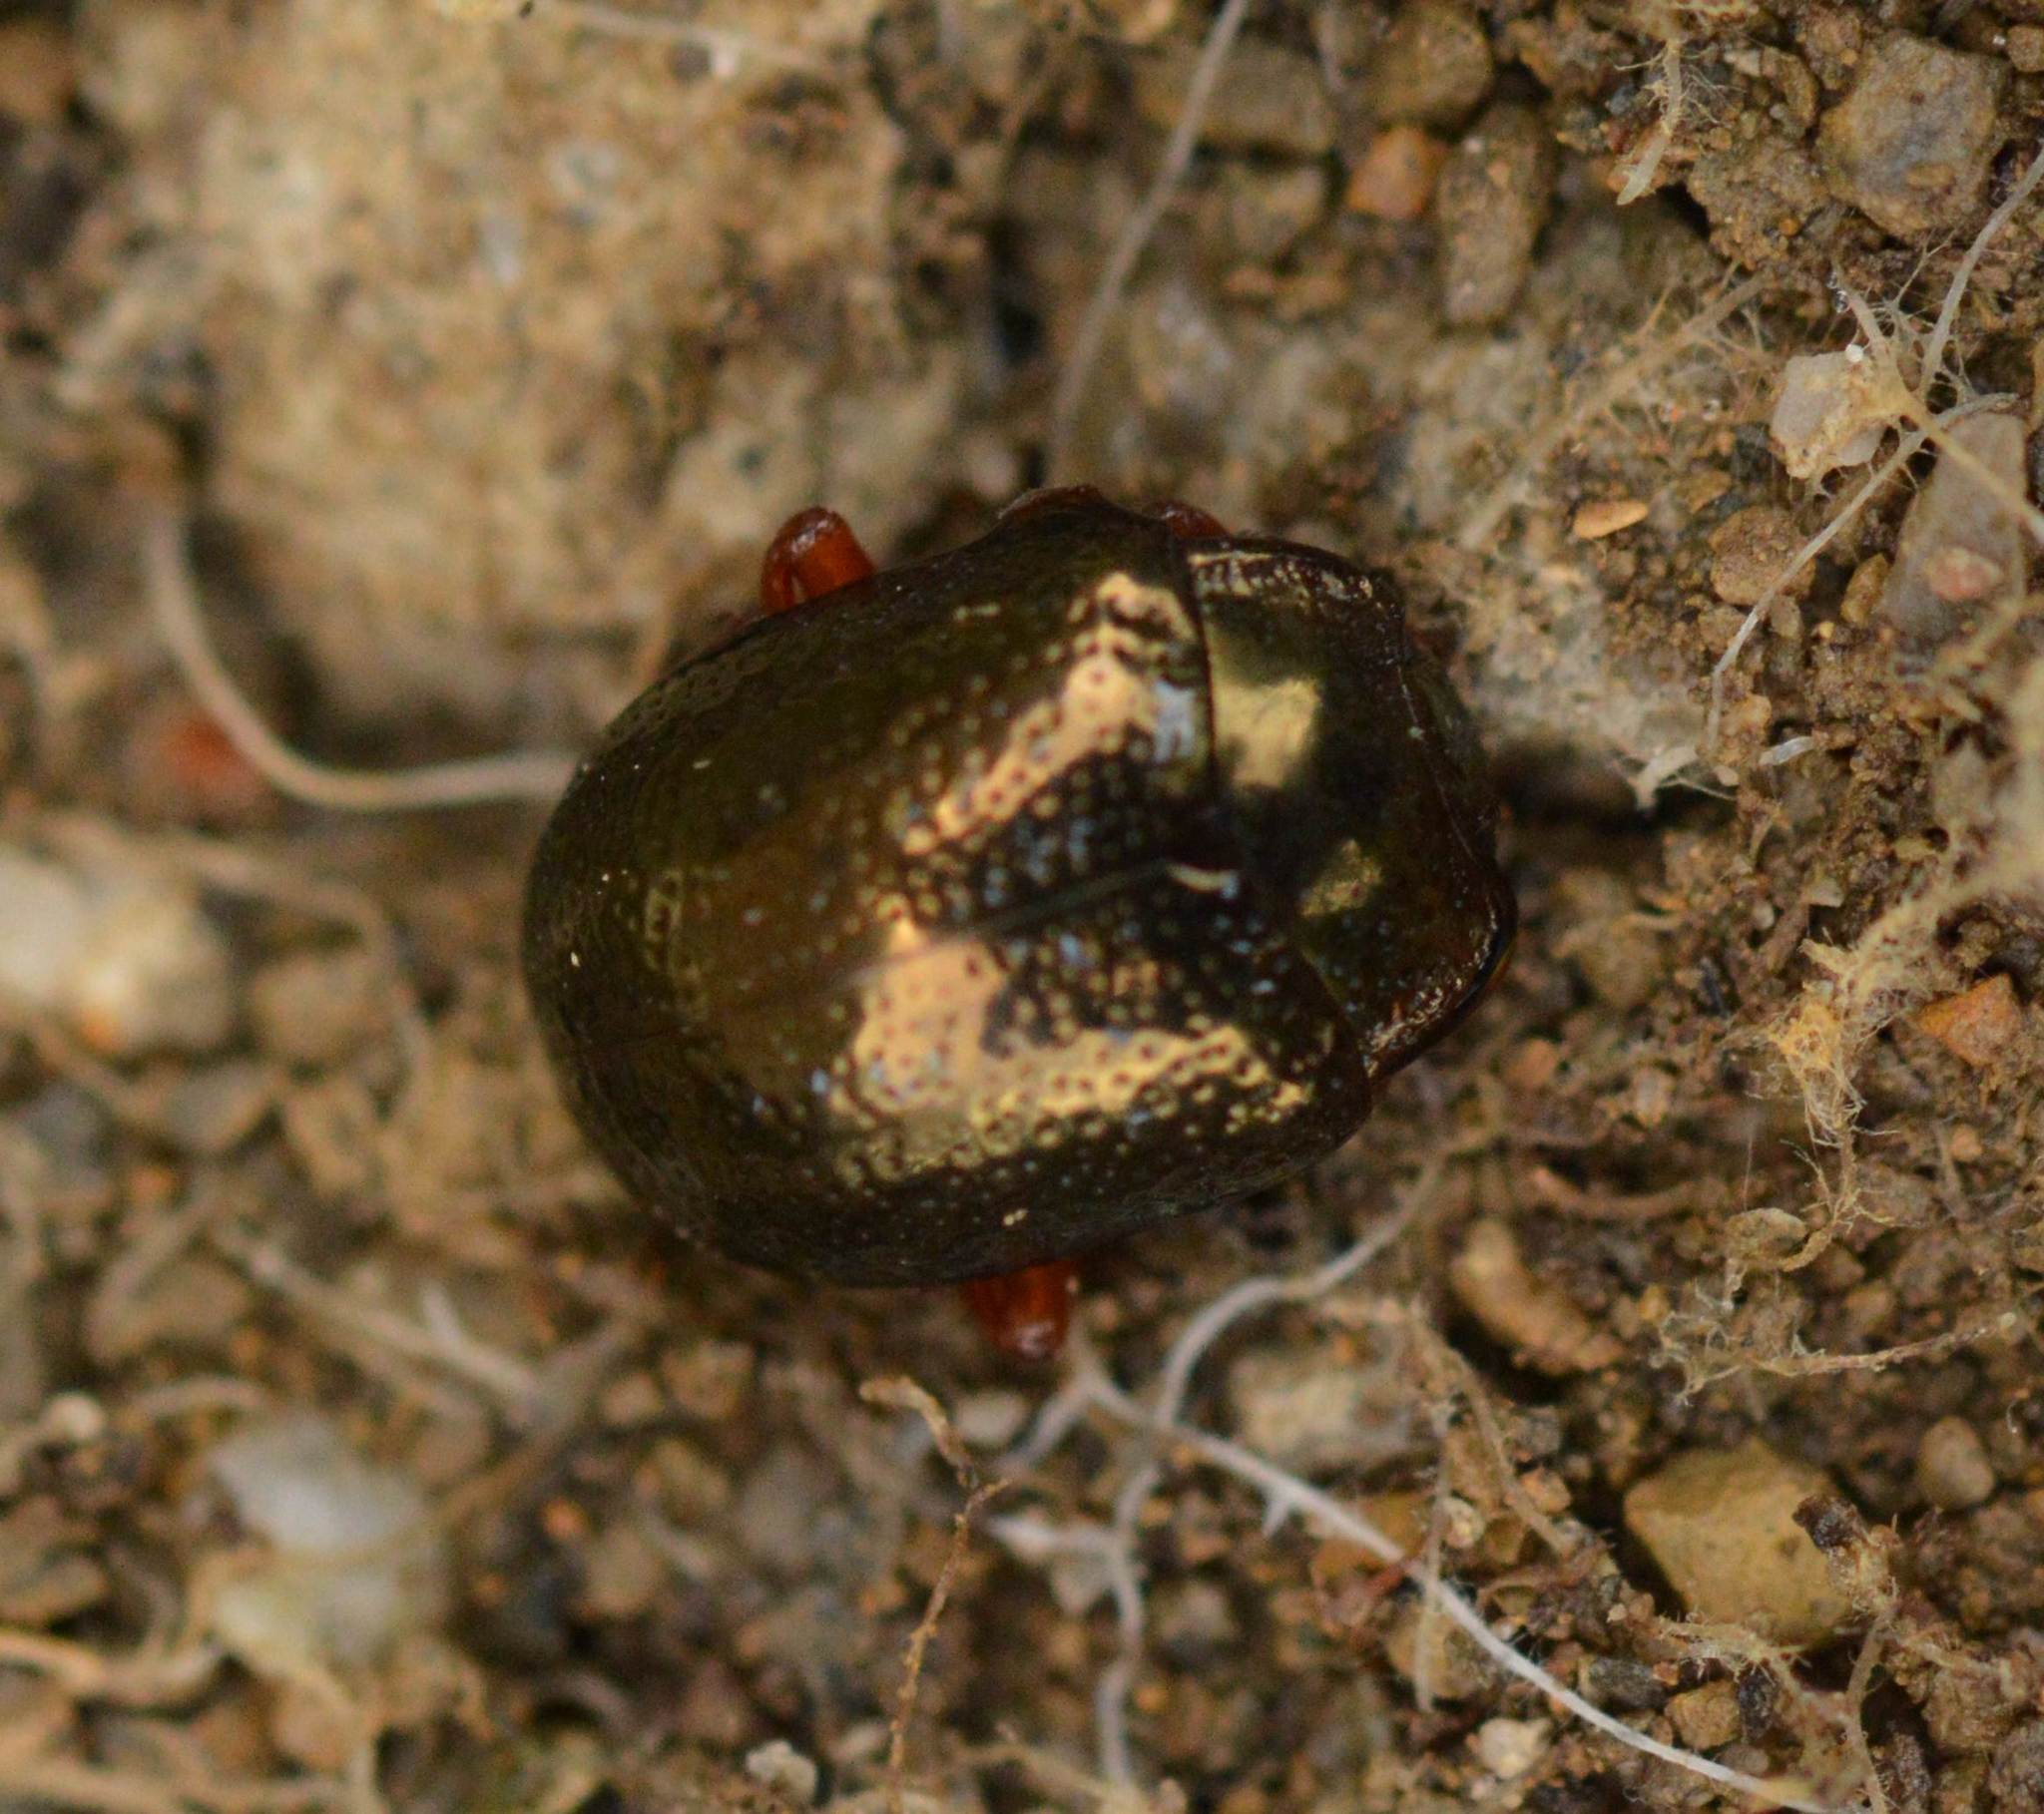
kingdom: Animalia
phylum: Arthropoda
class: Insecta
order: Coleoptera
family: Chrysomelidae
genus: Chrysolina
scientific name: Chrysolina bankii
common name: Leaf beetle
